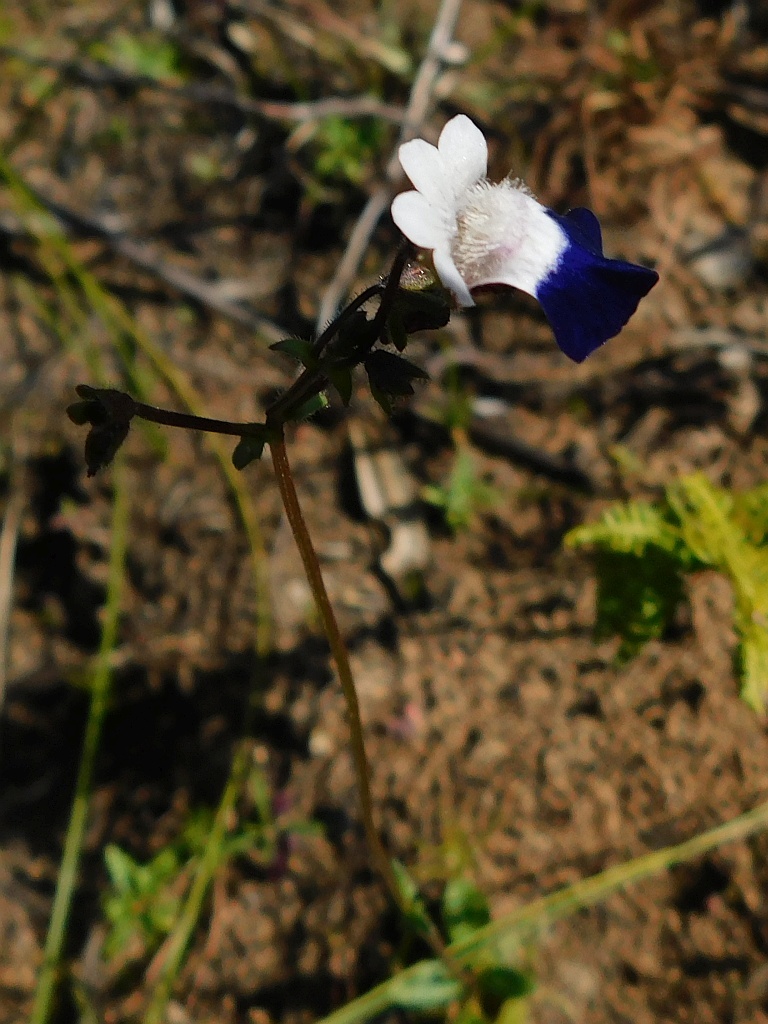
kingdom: Plantae
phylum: Tracheophyta
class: Magnoliopsida
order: Lamiales
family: Scrophulariaceae
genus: Nemesia
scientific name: Nemesia barbata
